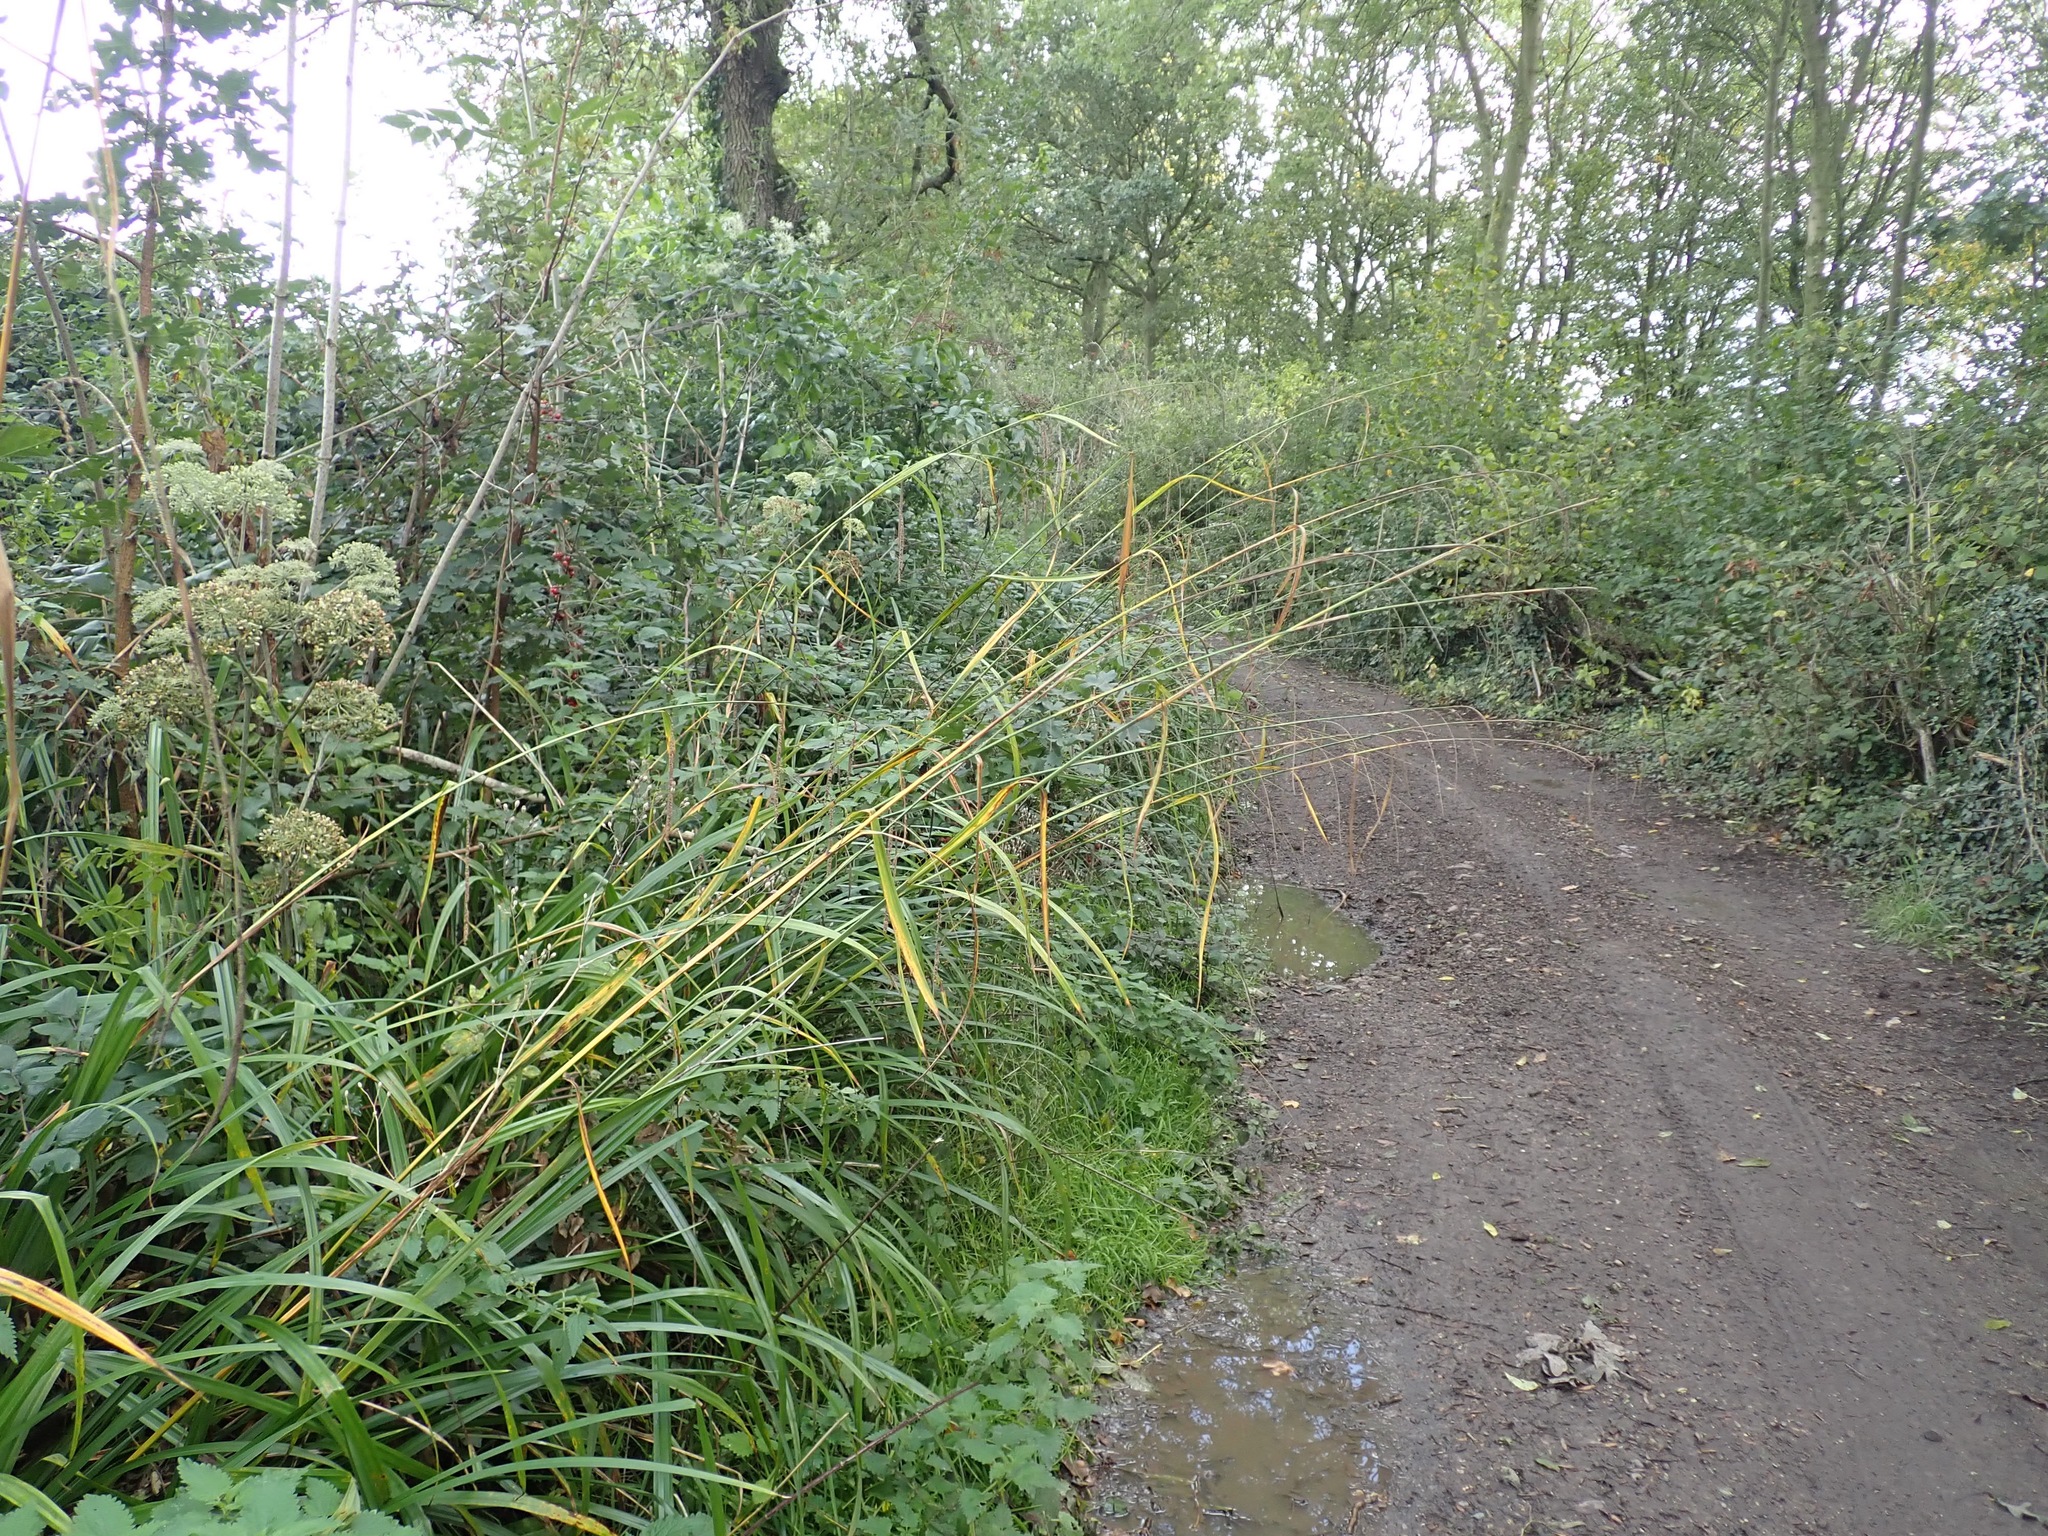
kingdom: Plantae
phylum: Tracheophyta
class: Liliopsida
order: Poales
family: Cyperaceae
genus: Carex
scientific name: Carex pendula
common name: Pendulous sedge
